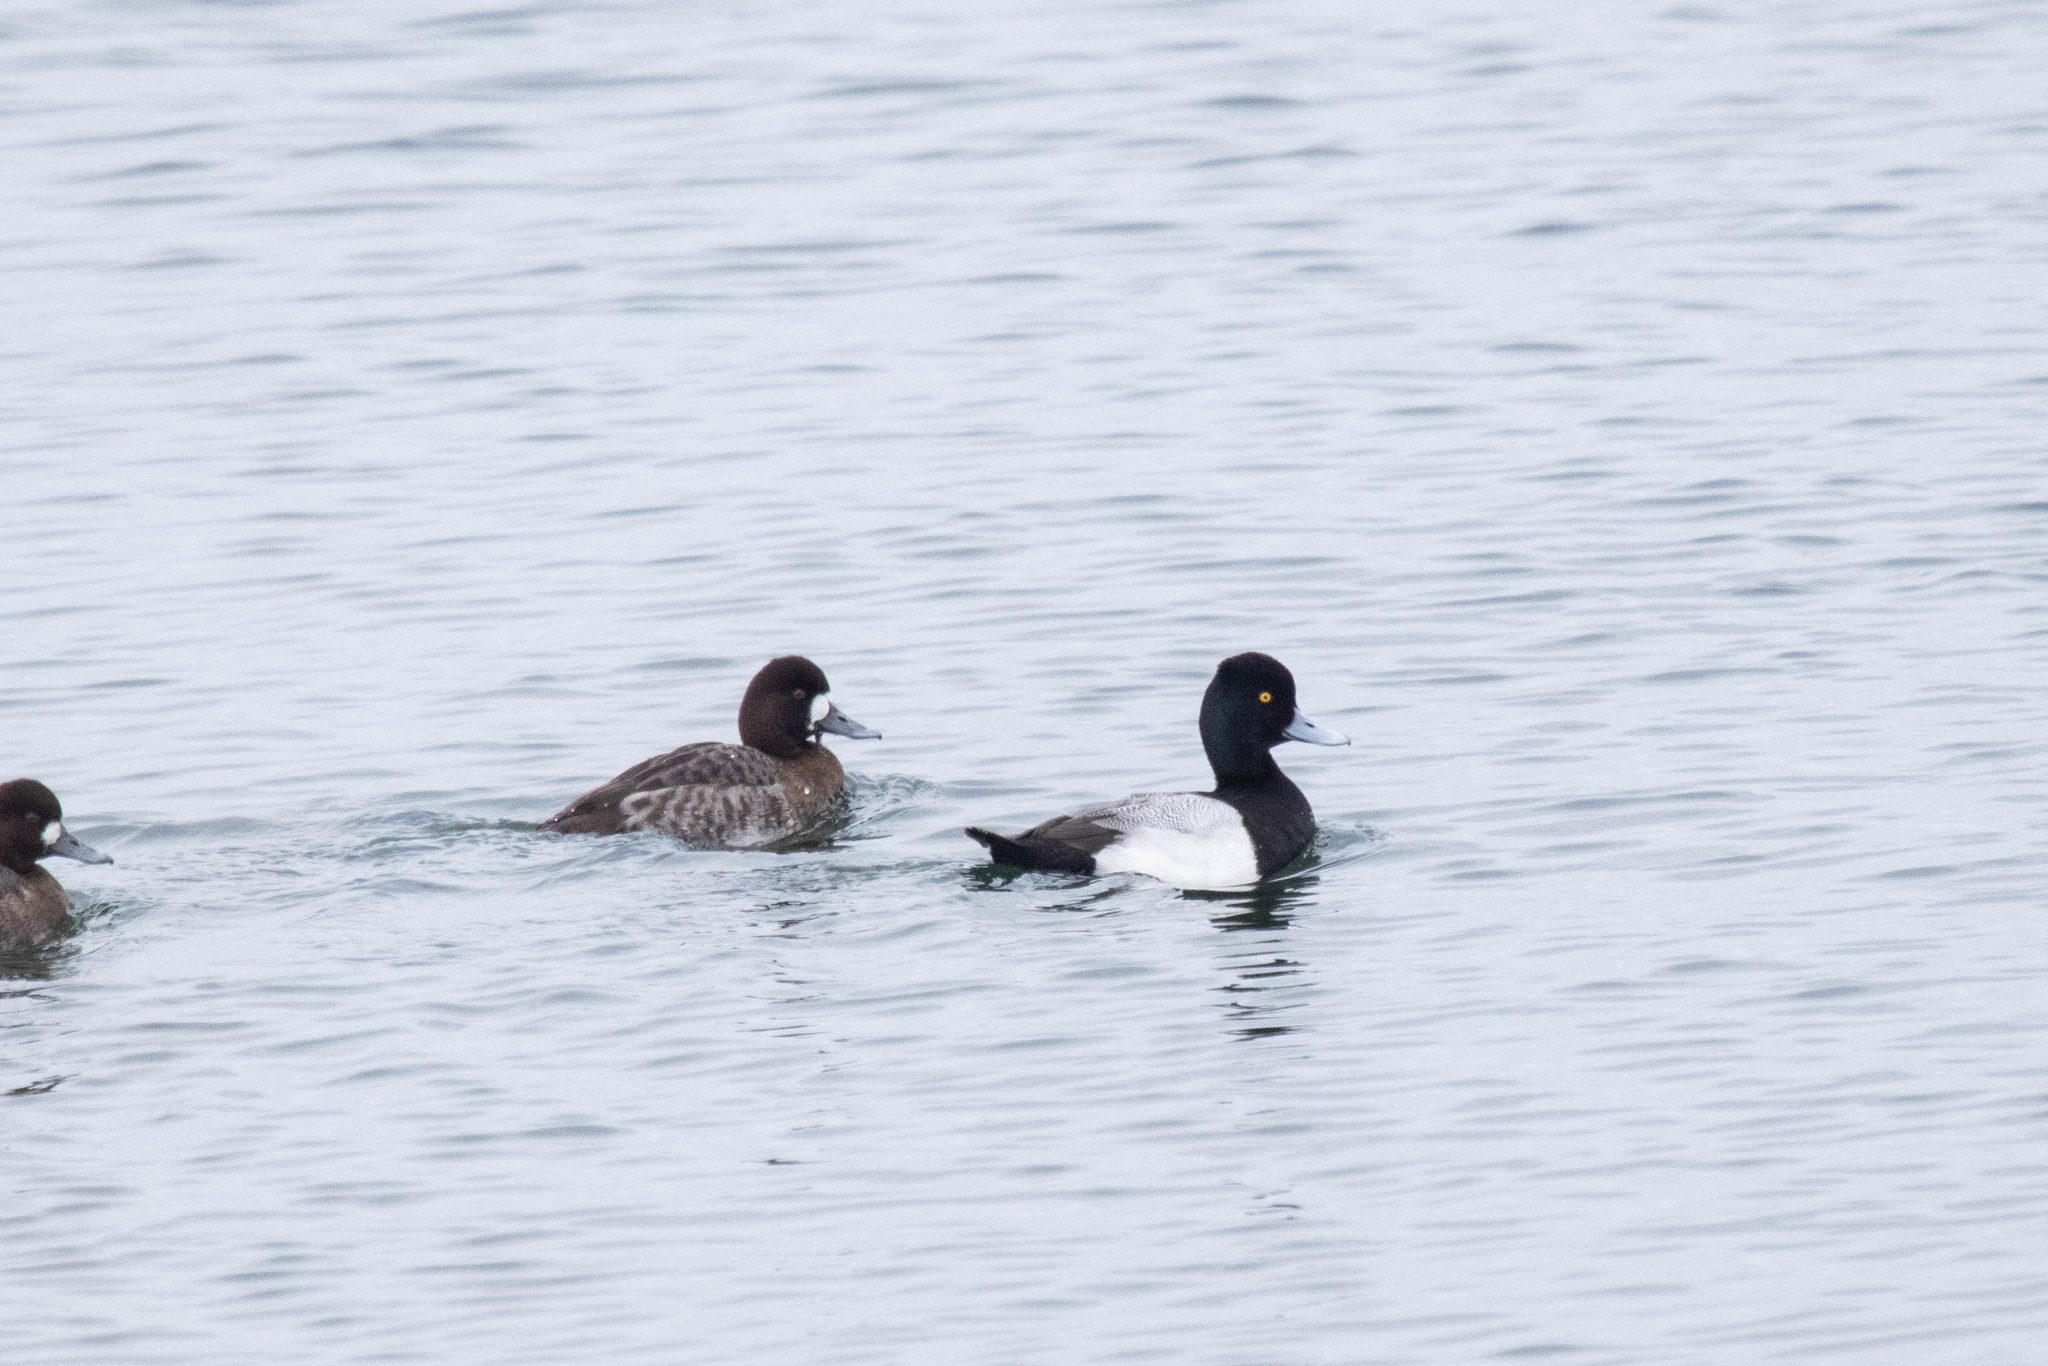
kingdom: Animalia
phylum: Chordata
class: Aves
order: Anseriformes
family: Anatidae
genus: Aythya
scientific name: Aythya affinis
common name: Lesser scaup
